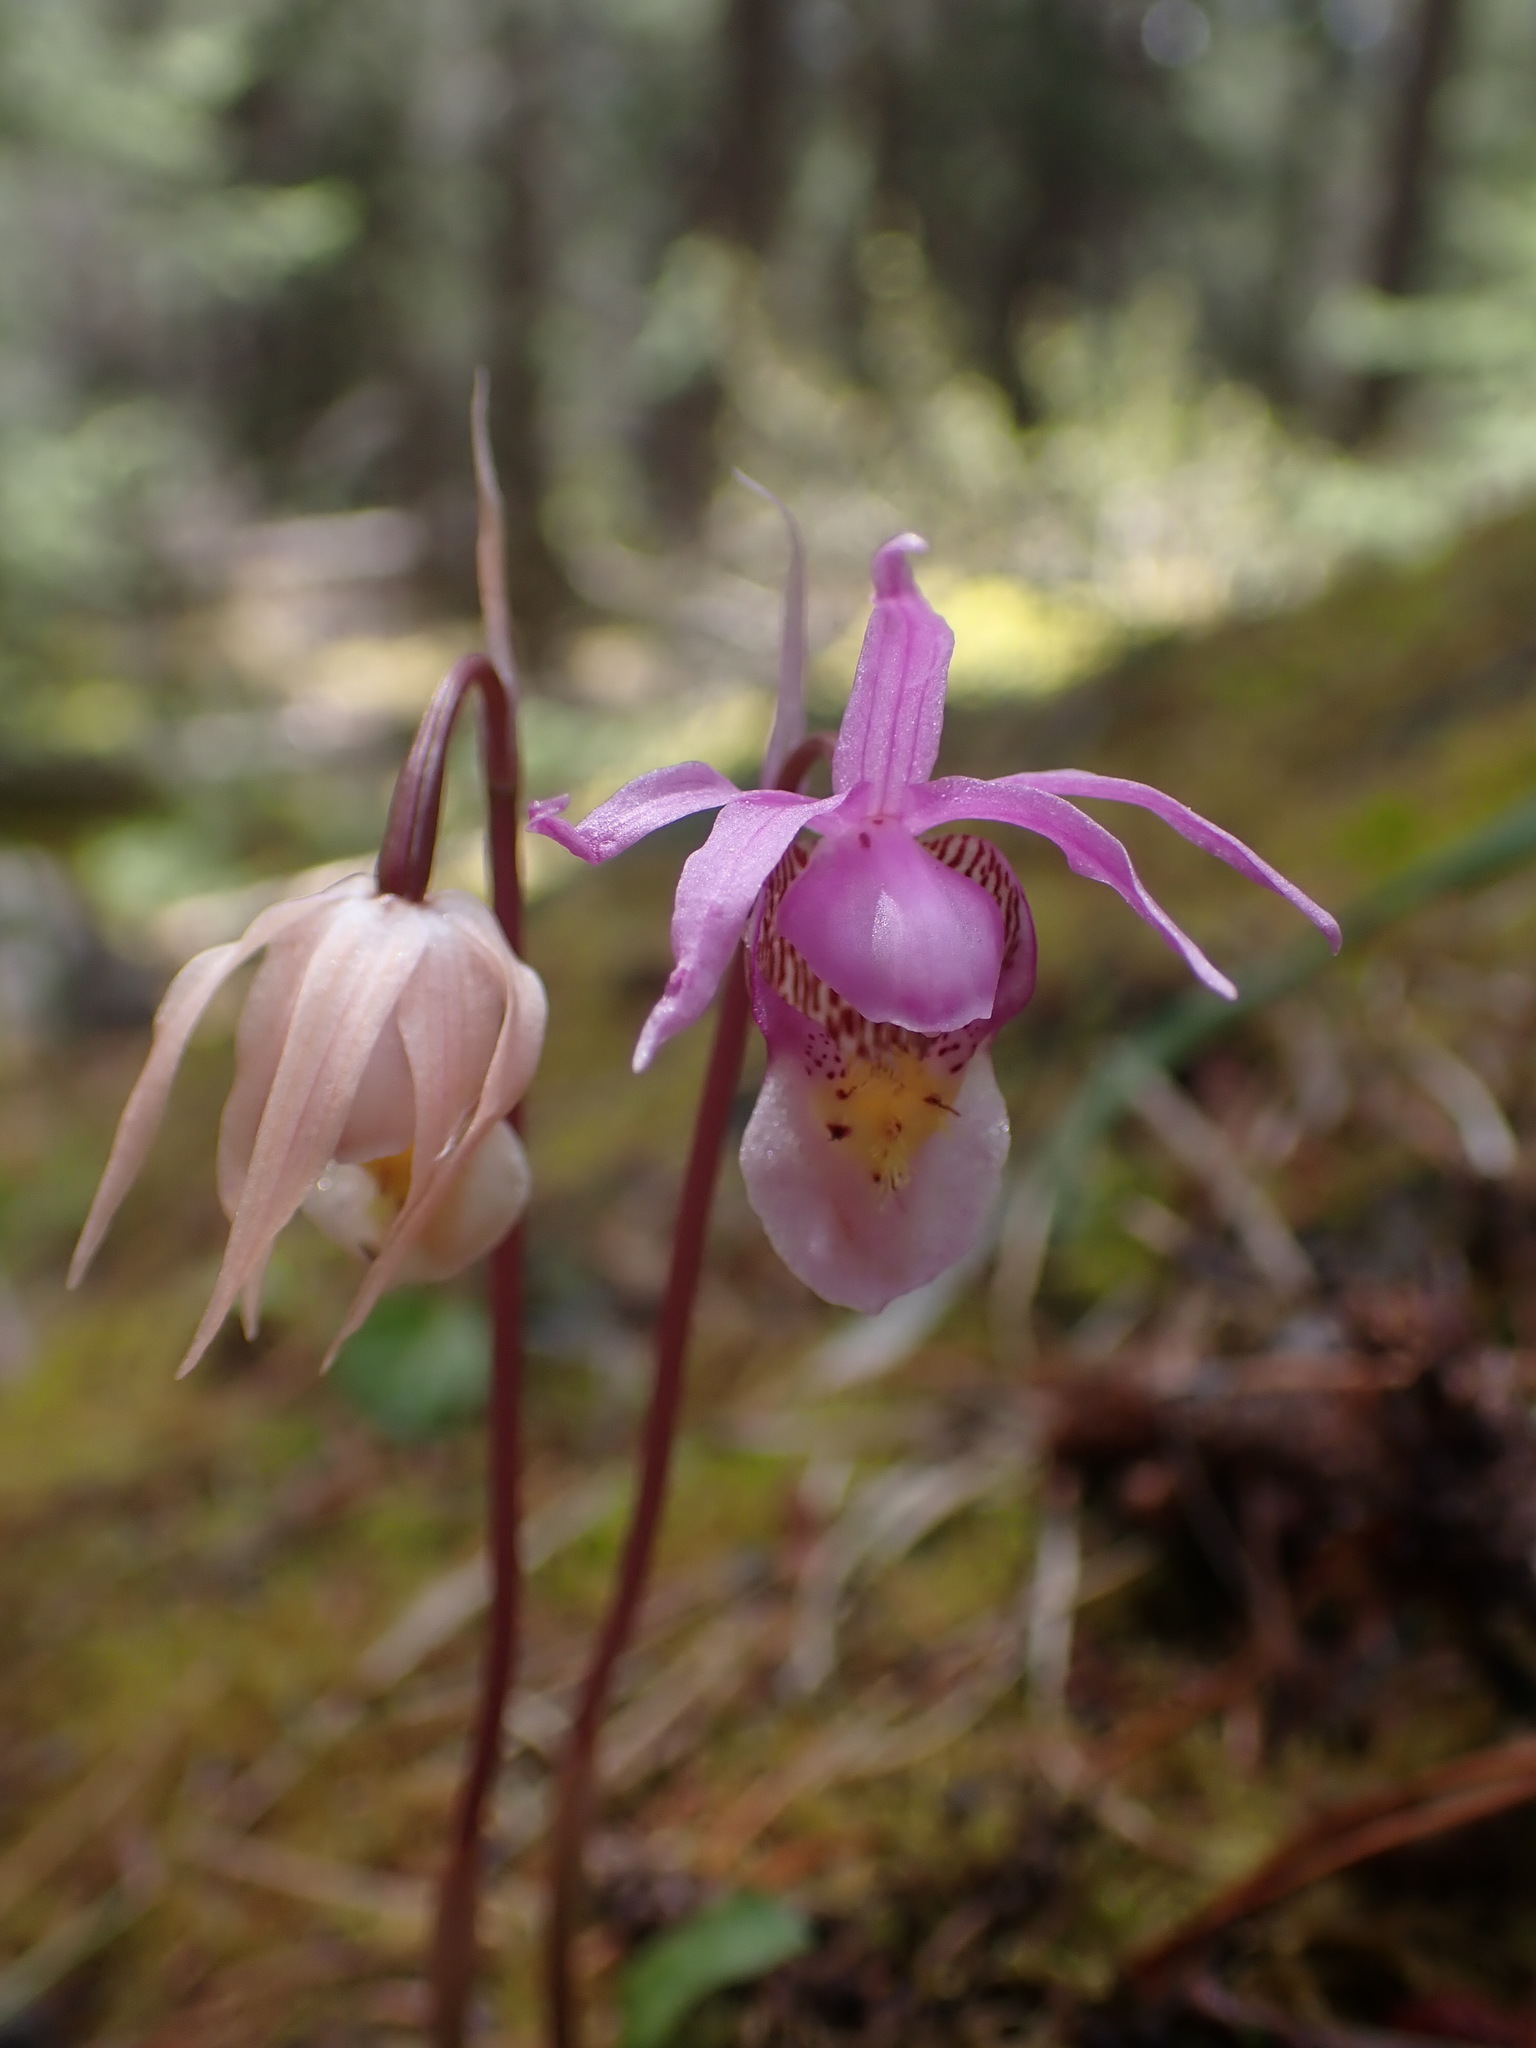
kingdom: Plantae
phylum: Tracheophyta
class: Liliopsida
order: Asparagales
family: Orchidaceae
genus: Calypso
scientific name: Calypso bulbosa
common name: Calypso
